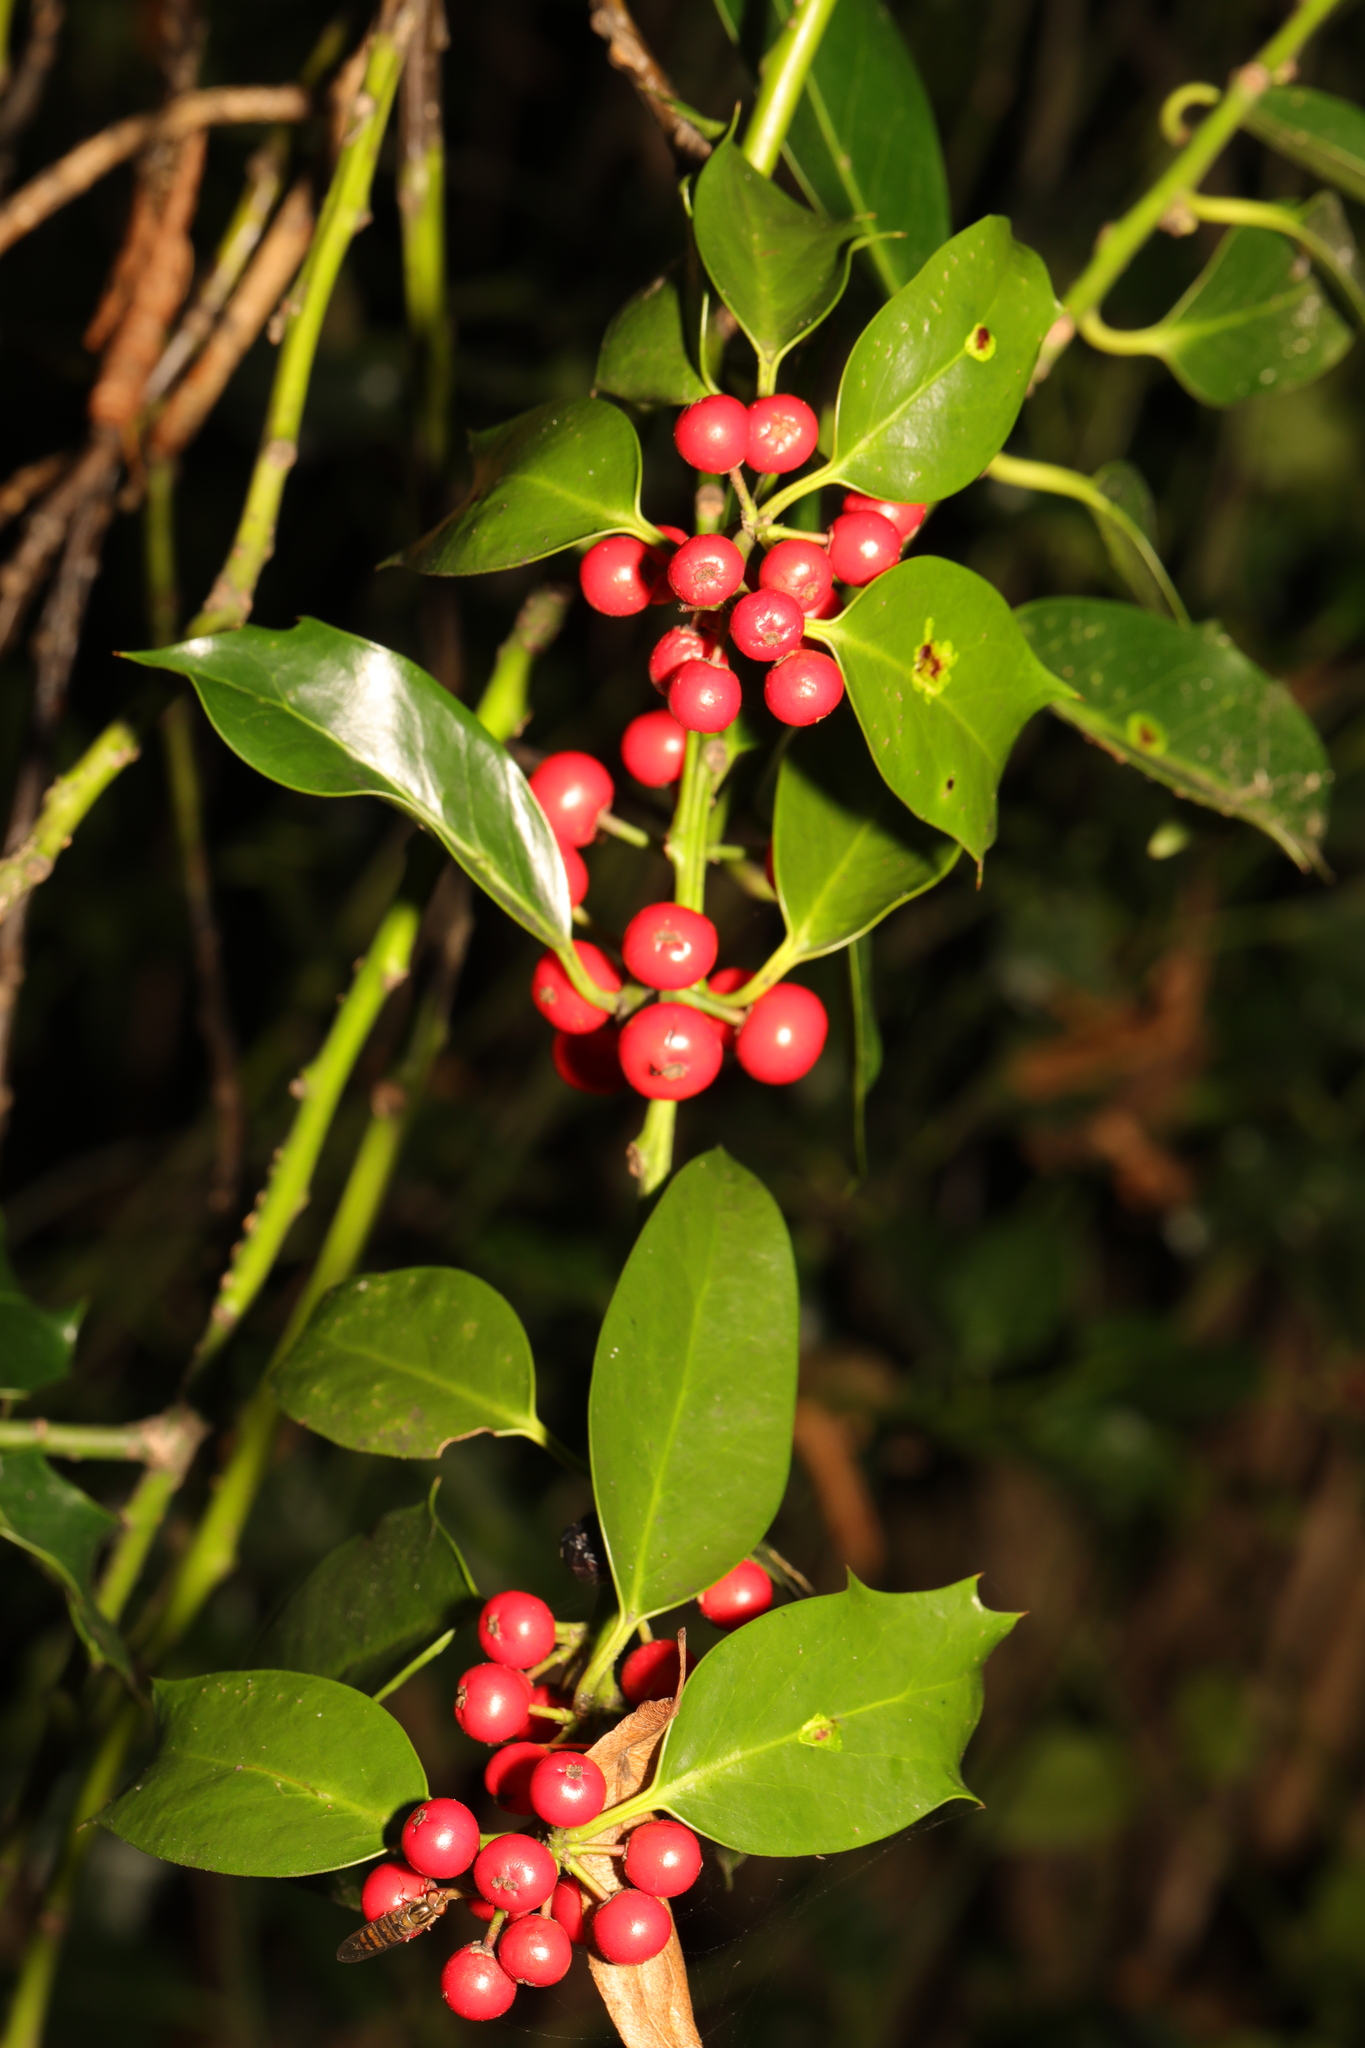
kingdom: Plantae
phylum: Tracheophyta
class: Magnoliopsida
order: Aquifoliales
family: Aquifoliaceae
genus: Ilex
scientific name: Ilex aquifolium
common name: English holly
